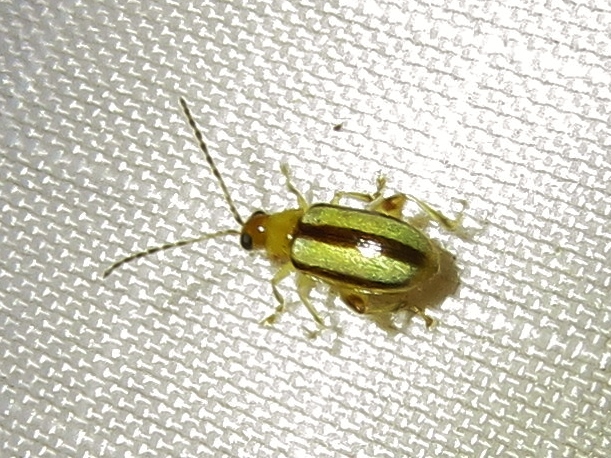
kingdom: Animalia
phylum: Arthropoda
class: Insecta
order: Coleoptera
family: Chrysomelidae
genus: Systena
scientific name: Systena gracilenta
